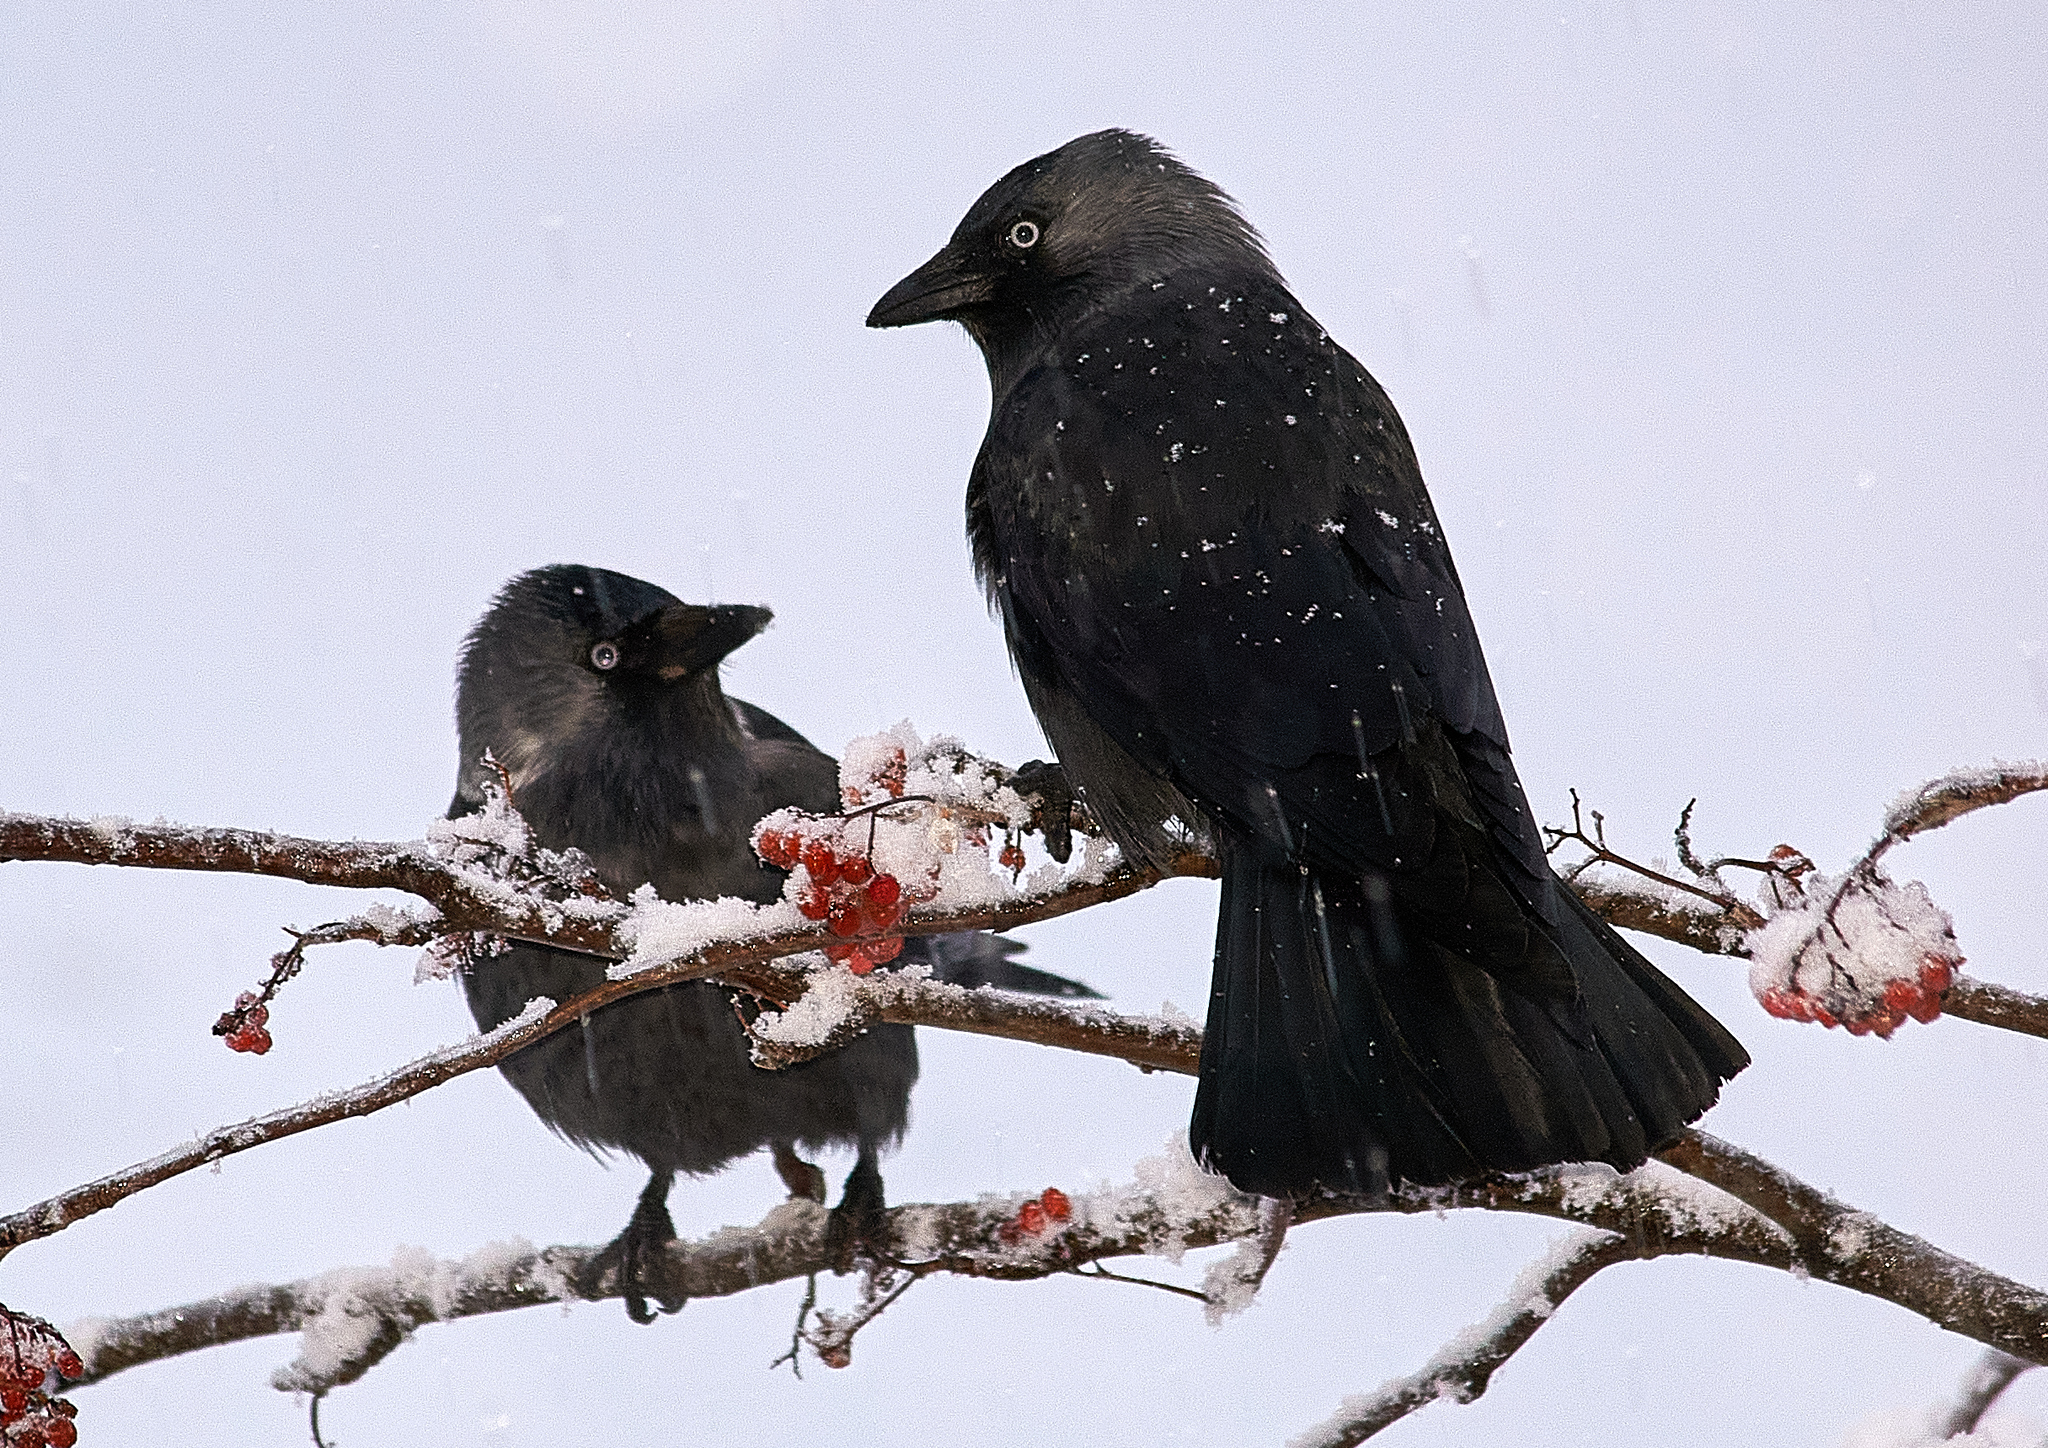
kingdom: Animalia
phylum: Chordata
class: Aves
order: Passeriformes
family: Corvidae
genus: Coloeus
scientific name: Coloeus monedula
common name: Western jackdaw
